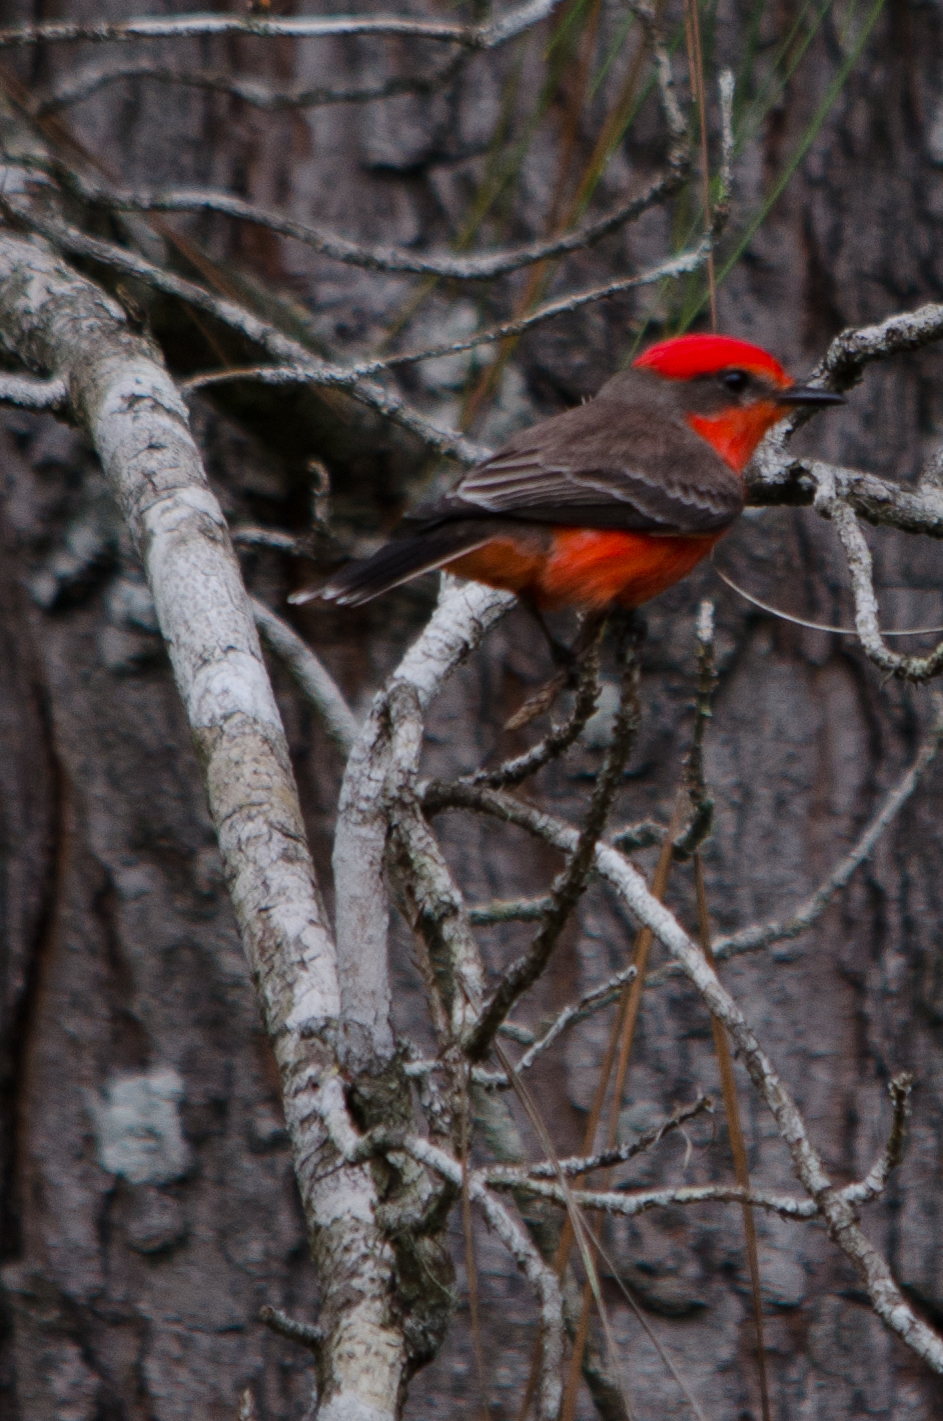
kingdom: Animalia
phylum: Chordata
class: Aves
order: Passeriformes
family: Tyrannidae
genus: Pyrocephalus
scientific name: Pyrocephalus rubinus
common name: Vermilion flycatcher
